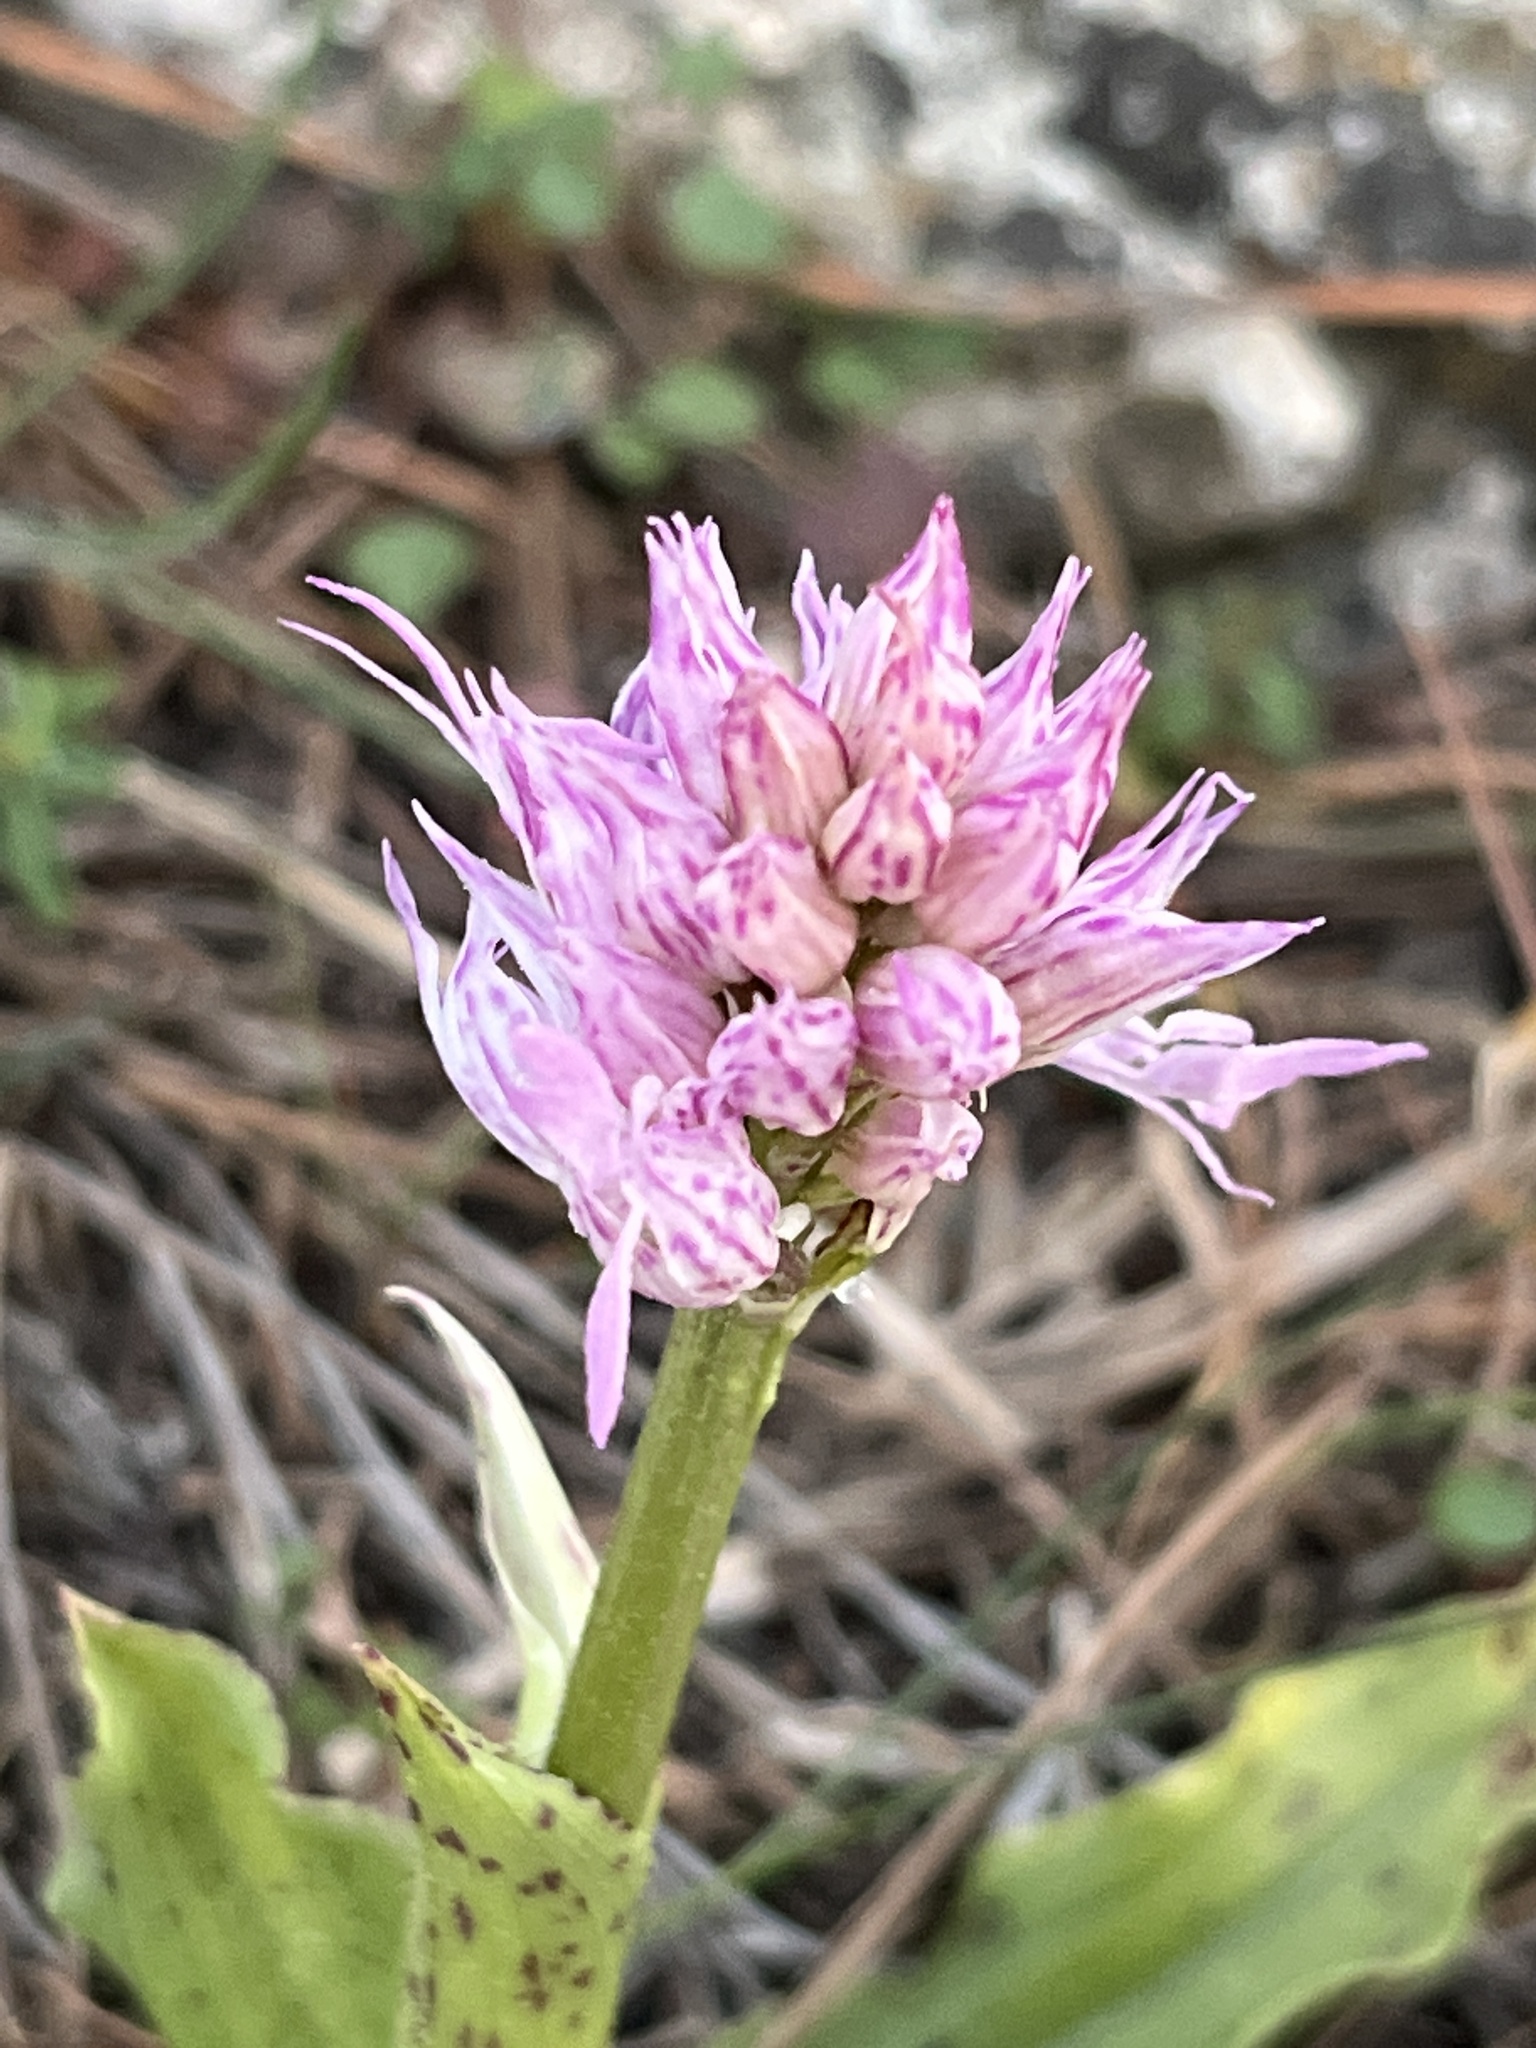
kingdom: Plantae
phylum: Tracheophyta
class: Liliopsida
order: Asparagales
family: Orchidaceae
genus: Orchis
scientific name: Orchis italica
